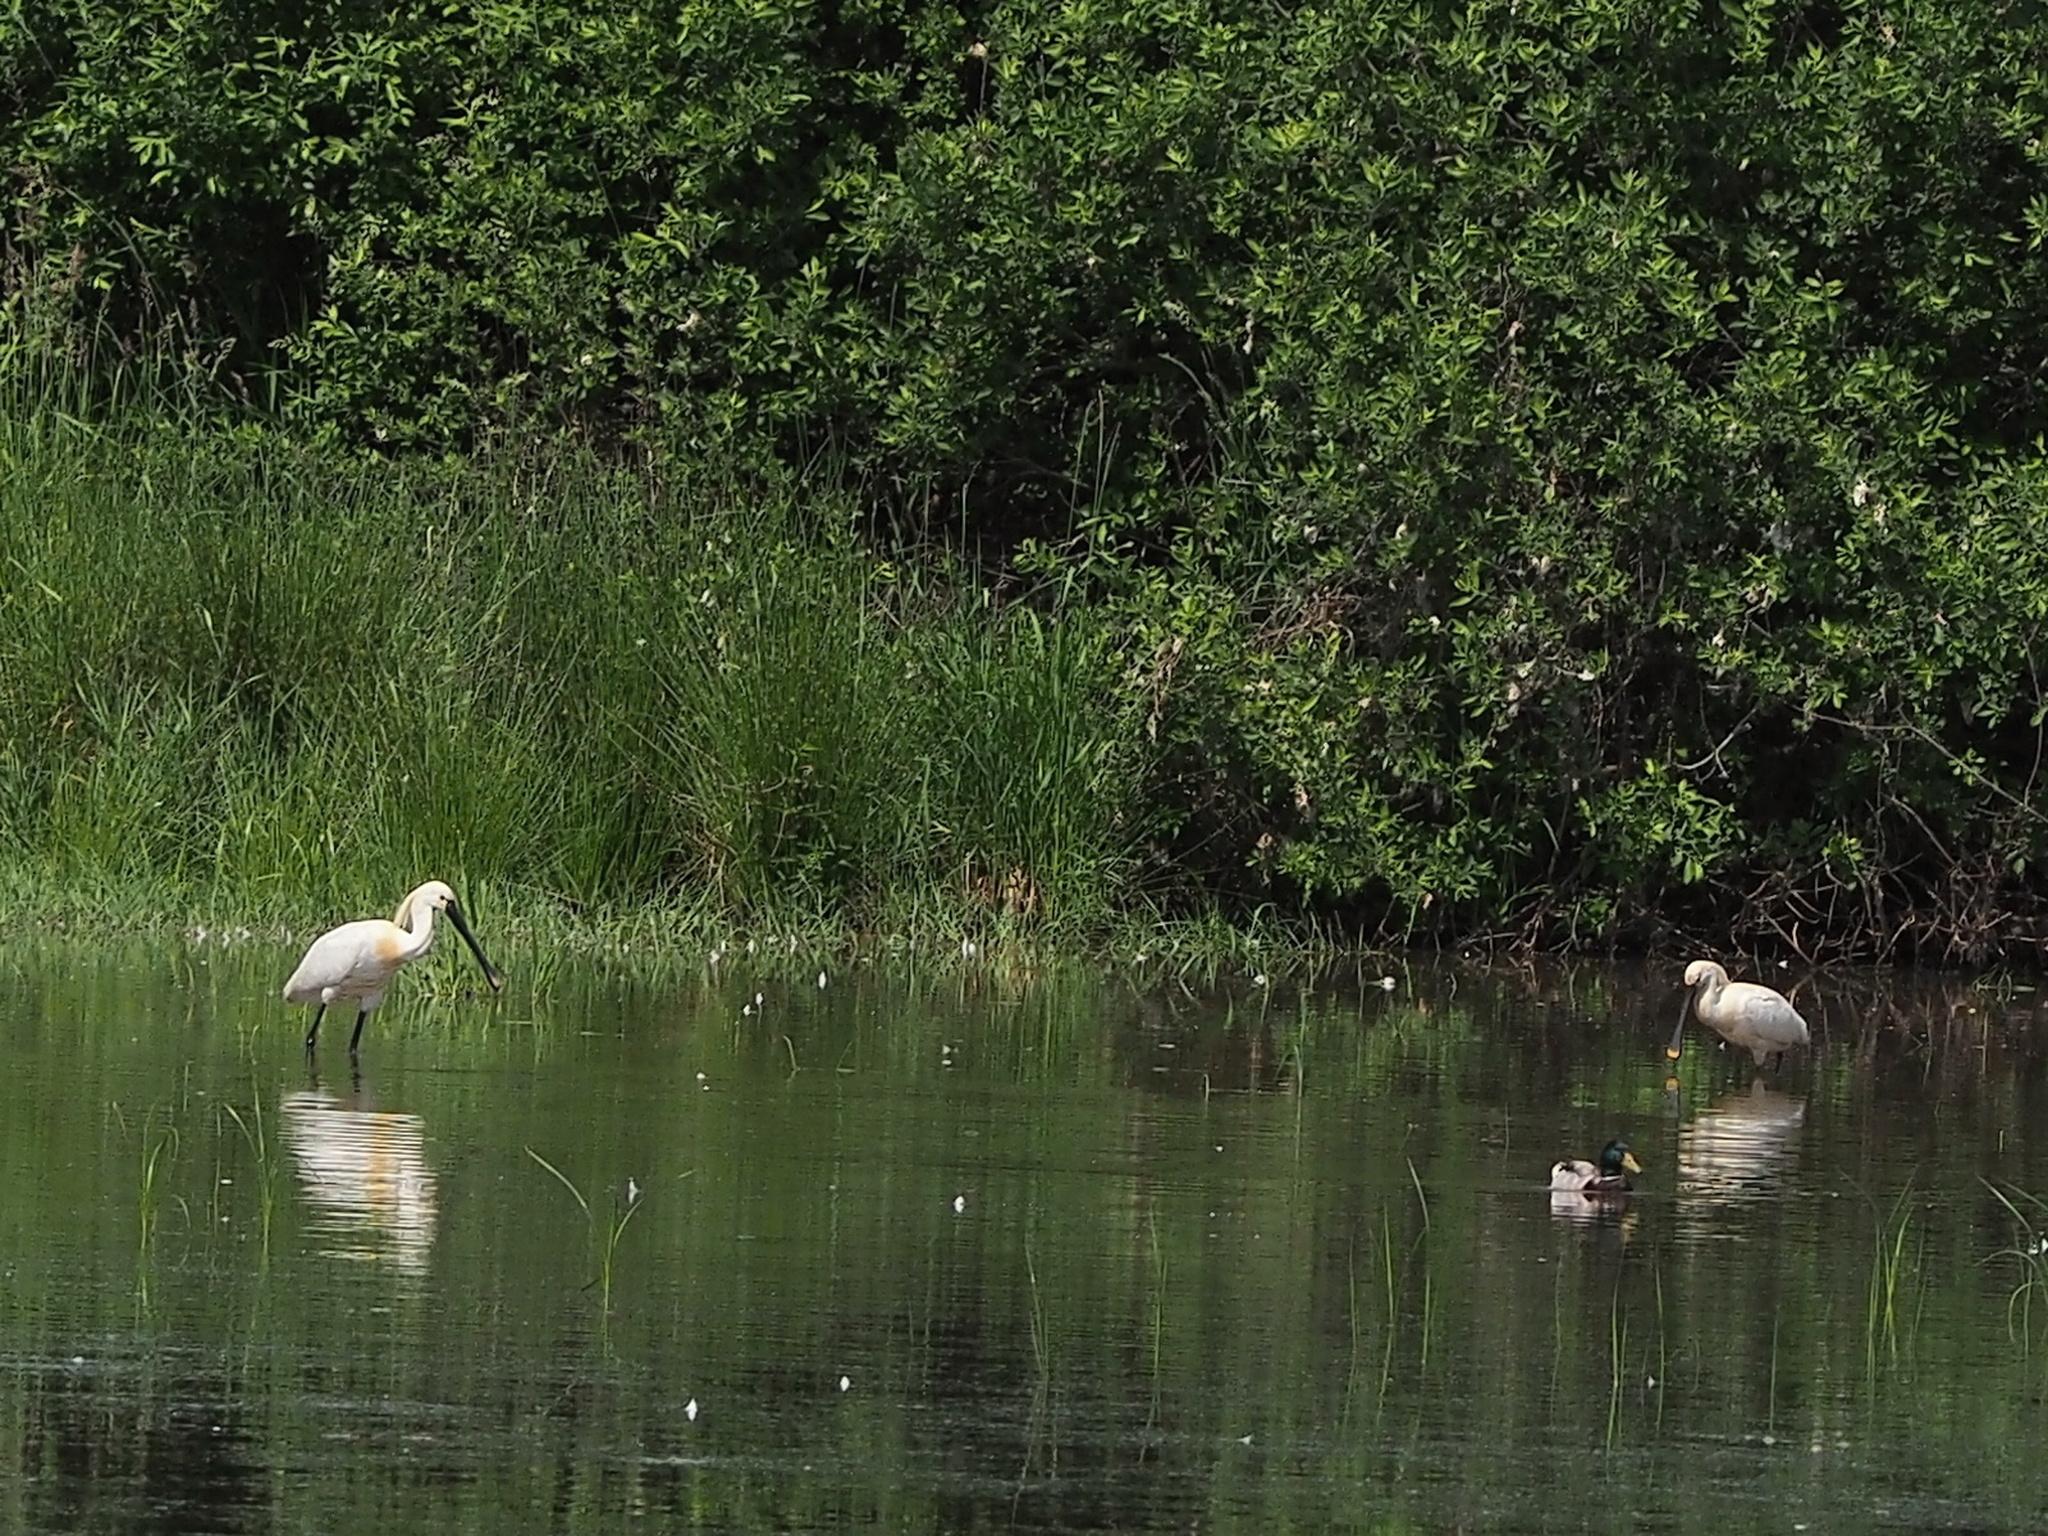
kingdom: Animalia
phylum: Chordata
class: Aves
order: Pelecaniformes
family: Threskiornithidae
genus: Platalea
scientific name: Platalea leucorodia
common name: Eurasian spoonbill
